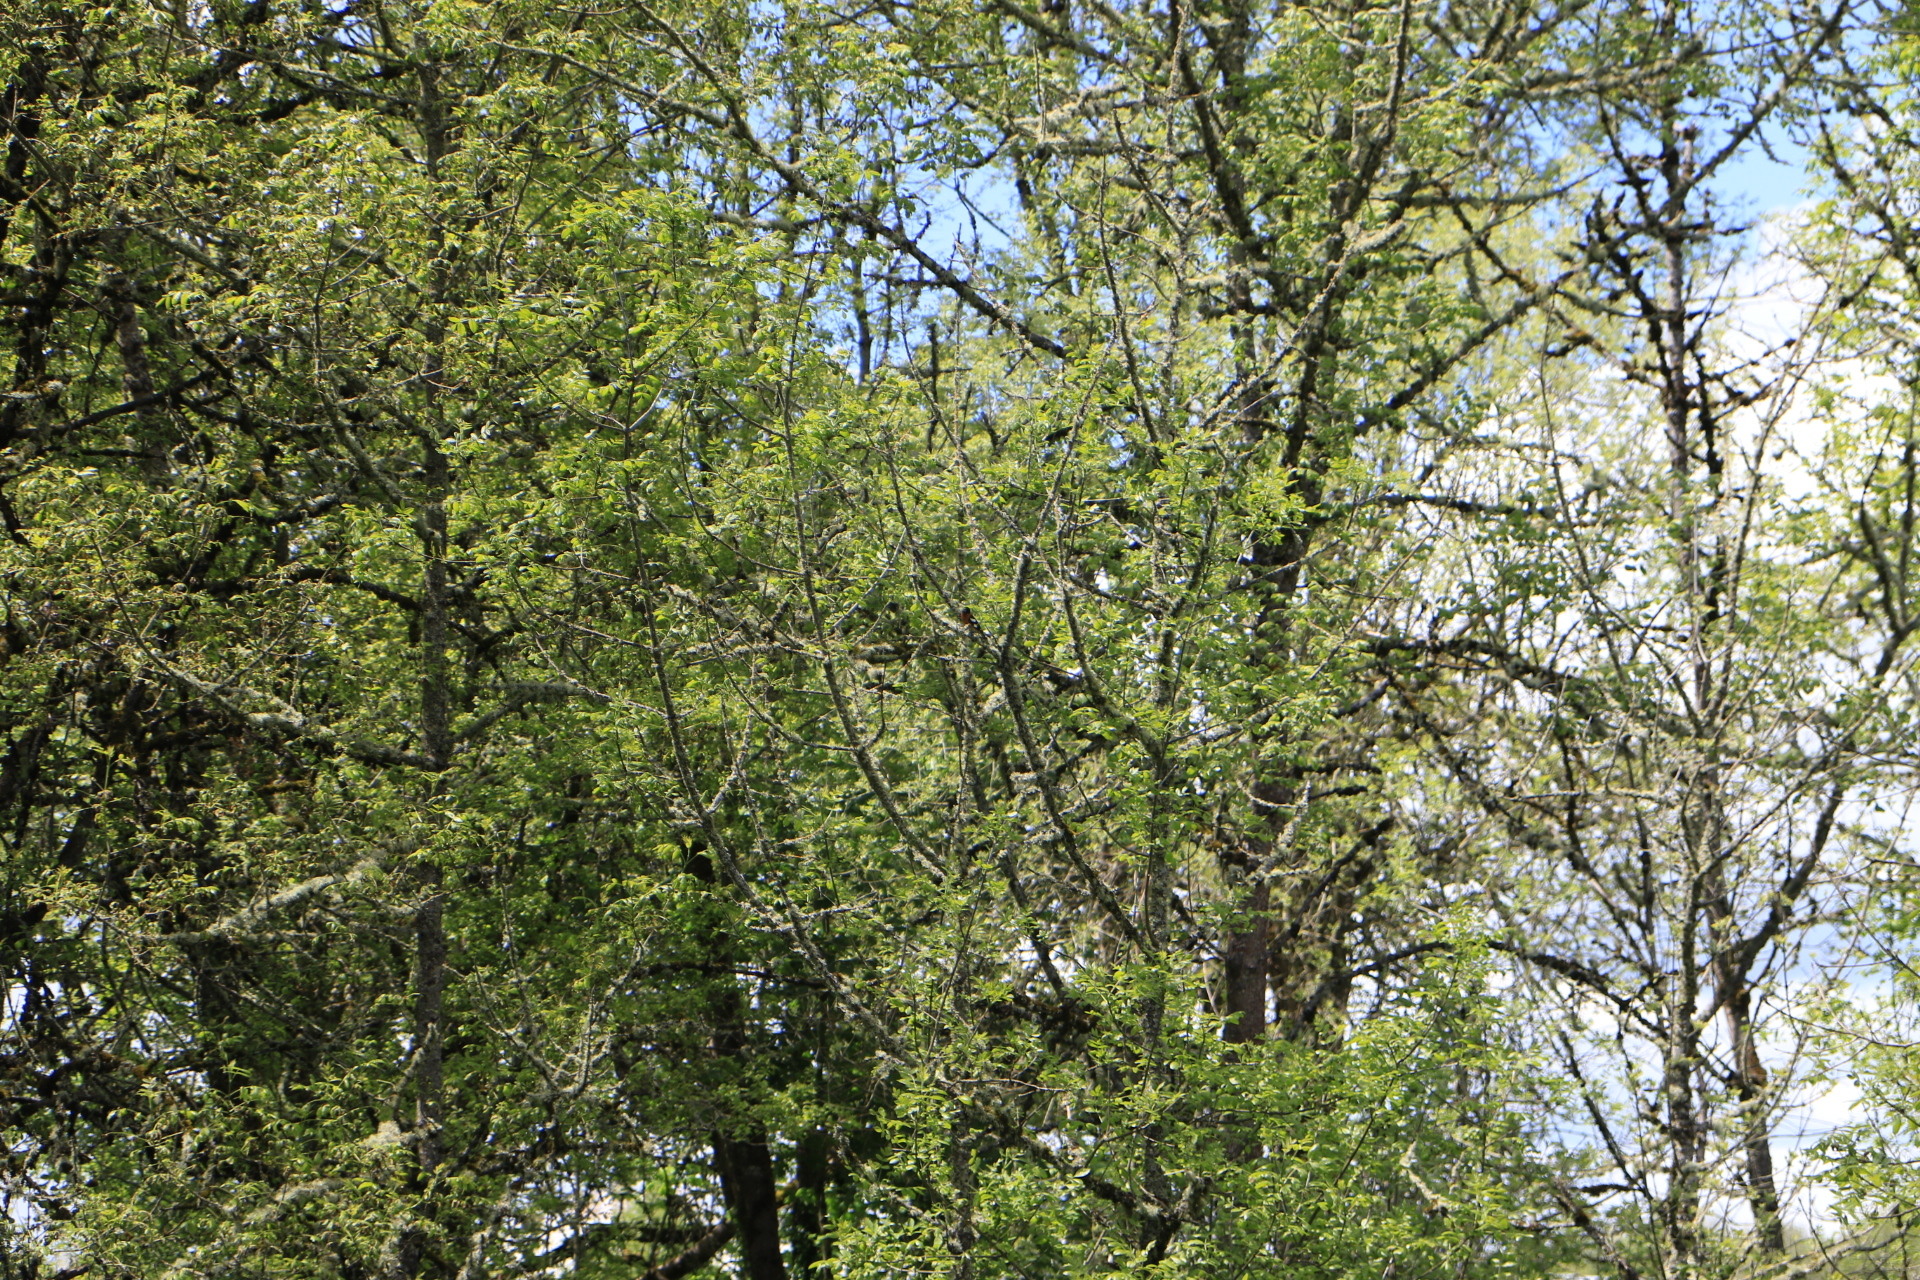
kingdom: Animalia
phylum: Chordata
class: Aves
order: Passeriformes
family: Cardinalidae
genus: Pheucticus
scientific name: Pheucticus melanocephalus
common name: Black-headed grosbeak
